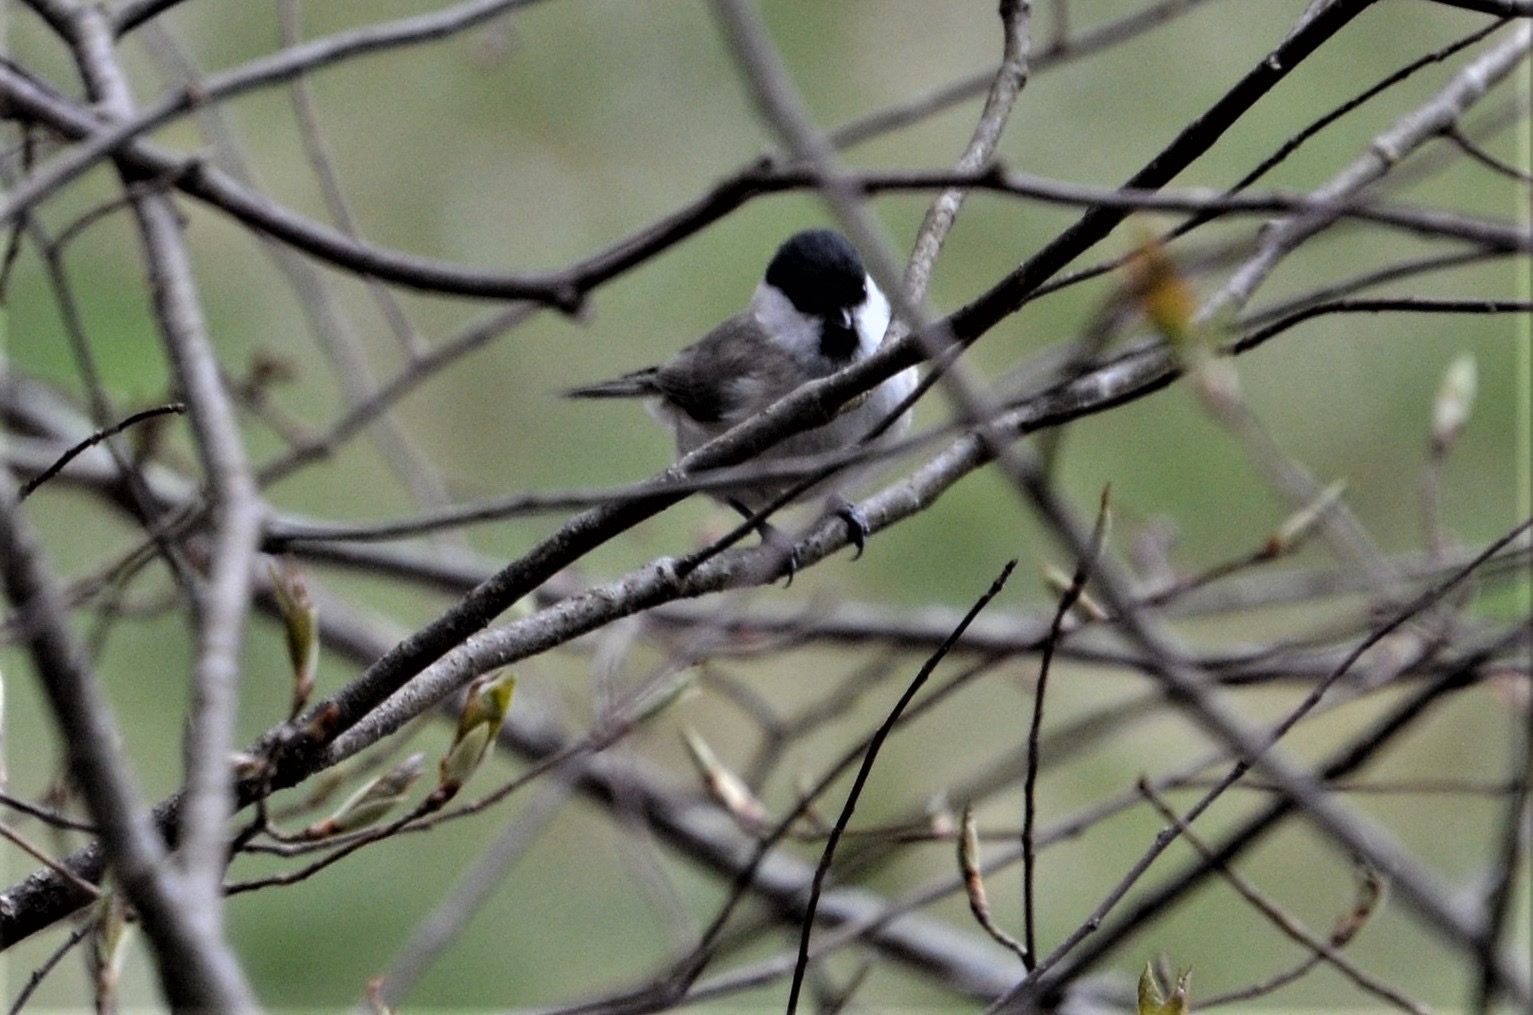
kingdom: Animalia
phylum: Chordata
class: Aves
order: Passeriformes
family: Paridae
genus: Poecile
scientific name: Poecile palustris
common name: Marsh tit
